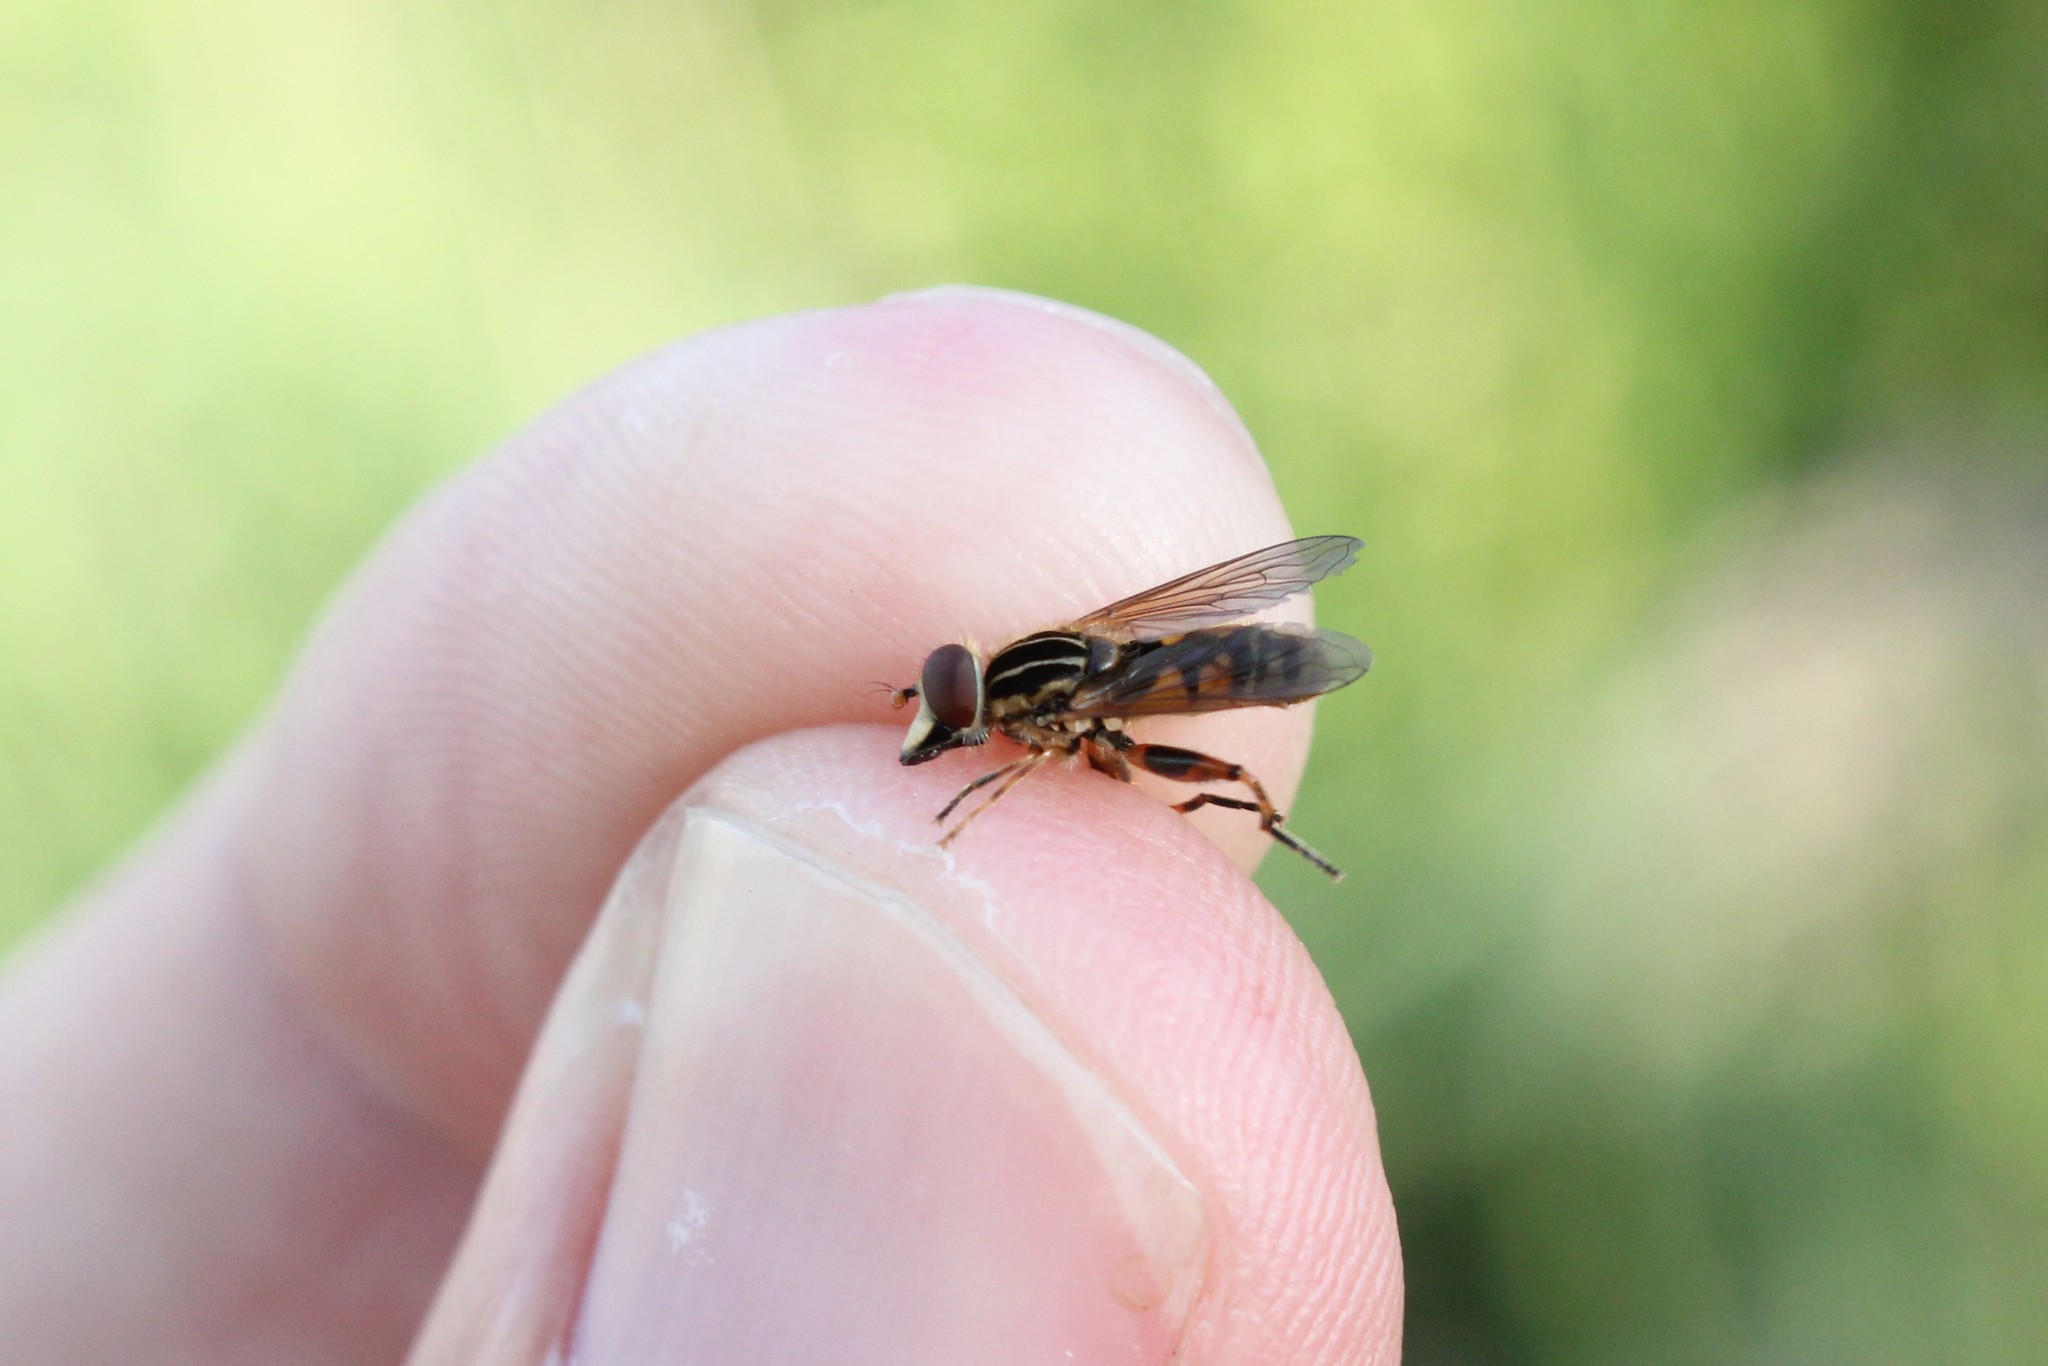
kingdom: Animalia
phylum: Arthropoda
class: Insecta
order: Diptera
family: Syrphidae
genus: Eurimyia
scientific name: Eurimyia stipatus
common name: Long-nosed swamp fly
